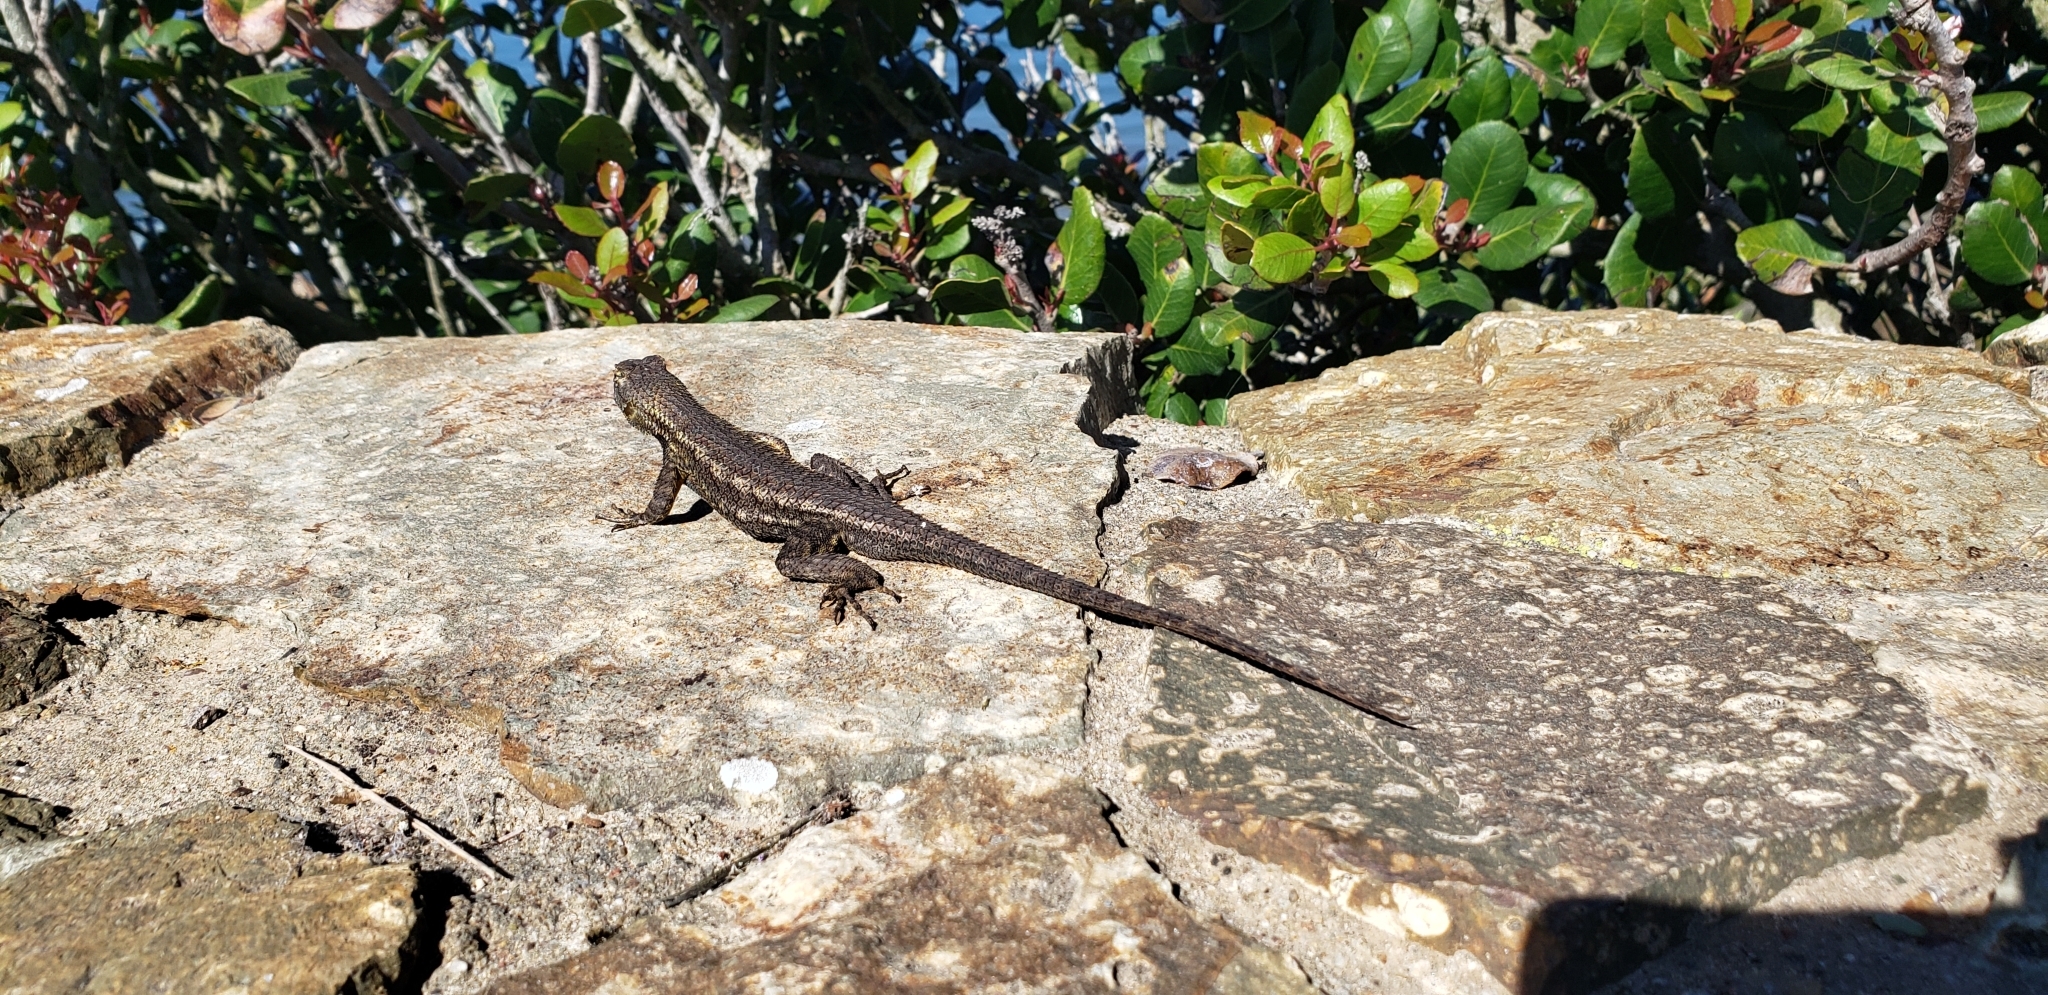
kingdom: Animalia
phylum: Chordata
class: Squamata
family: Phrynosomatidae
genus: Sceloporus
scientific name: Sceloporus occidentalis
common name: Western fence lizard
